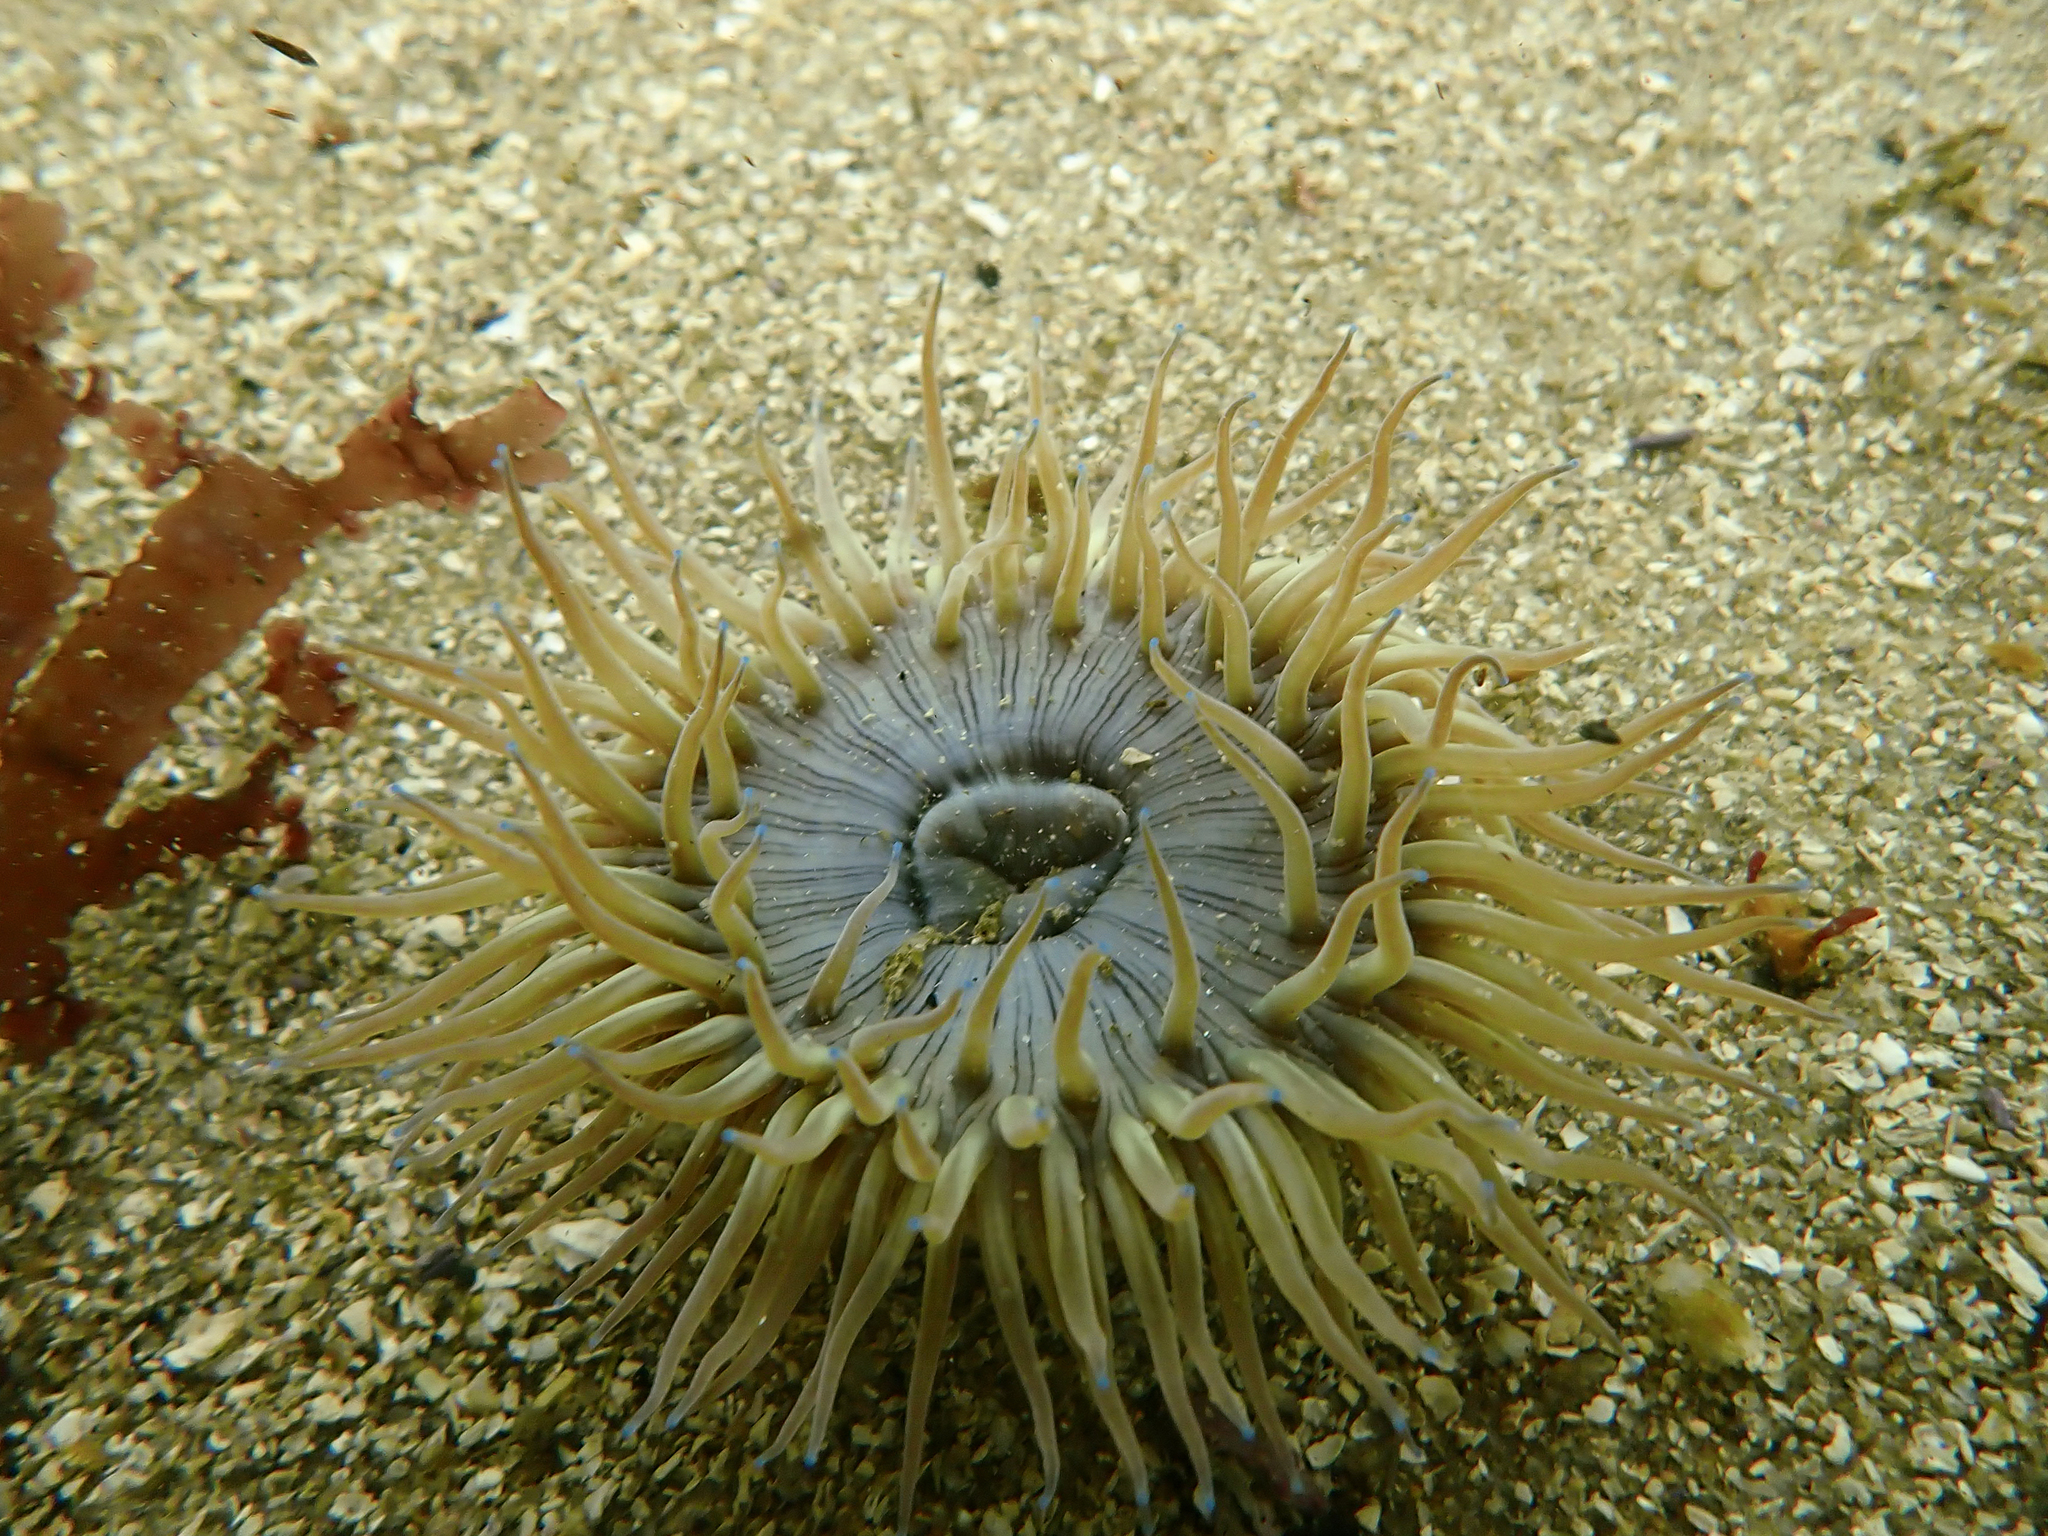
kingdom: Animalia
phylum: Cnidaria
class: Anthozoa
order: Actiniaria
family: Actiniidae
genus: Anthopleura
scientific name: Anthopleura sola
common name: Sun anemone
